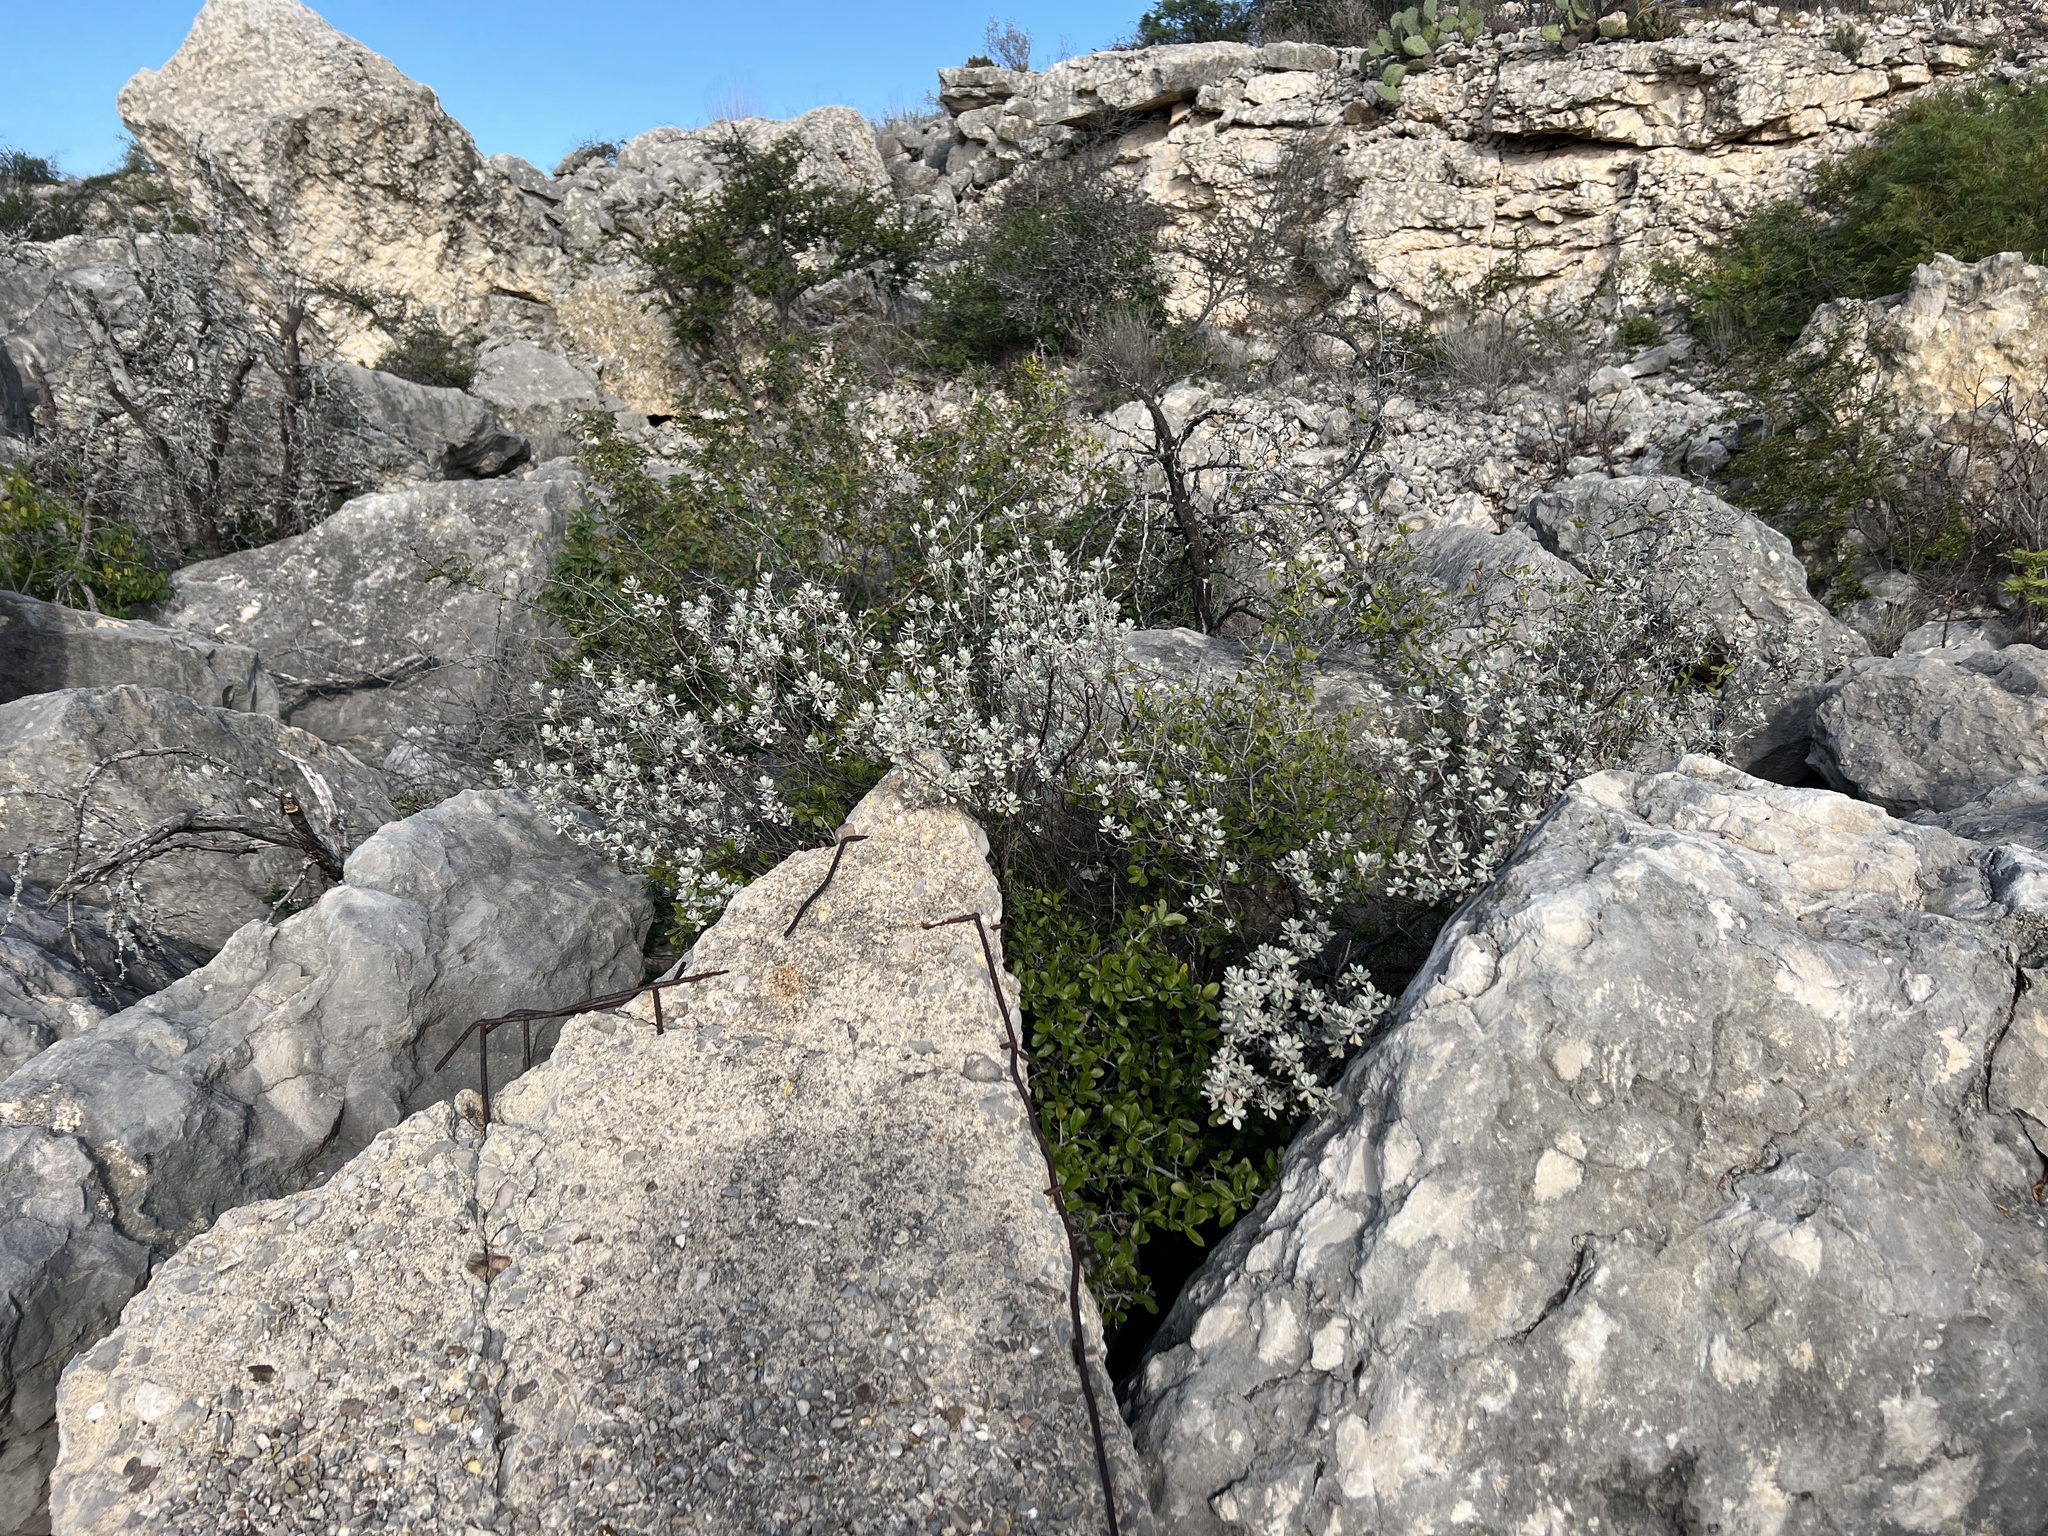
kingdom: Plantae
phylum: Tracheophyta
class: Magnoliopsida
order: Lamiales
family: Scrophulariaceae
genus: Leucophyllum
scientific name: Leucophyllum frutescens
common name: Texas silverleaf
